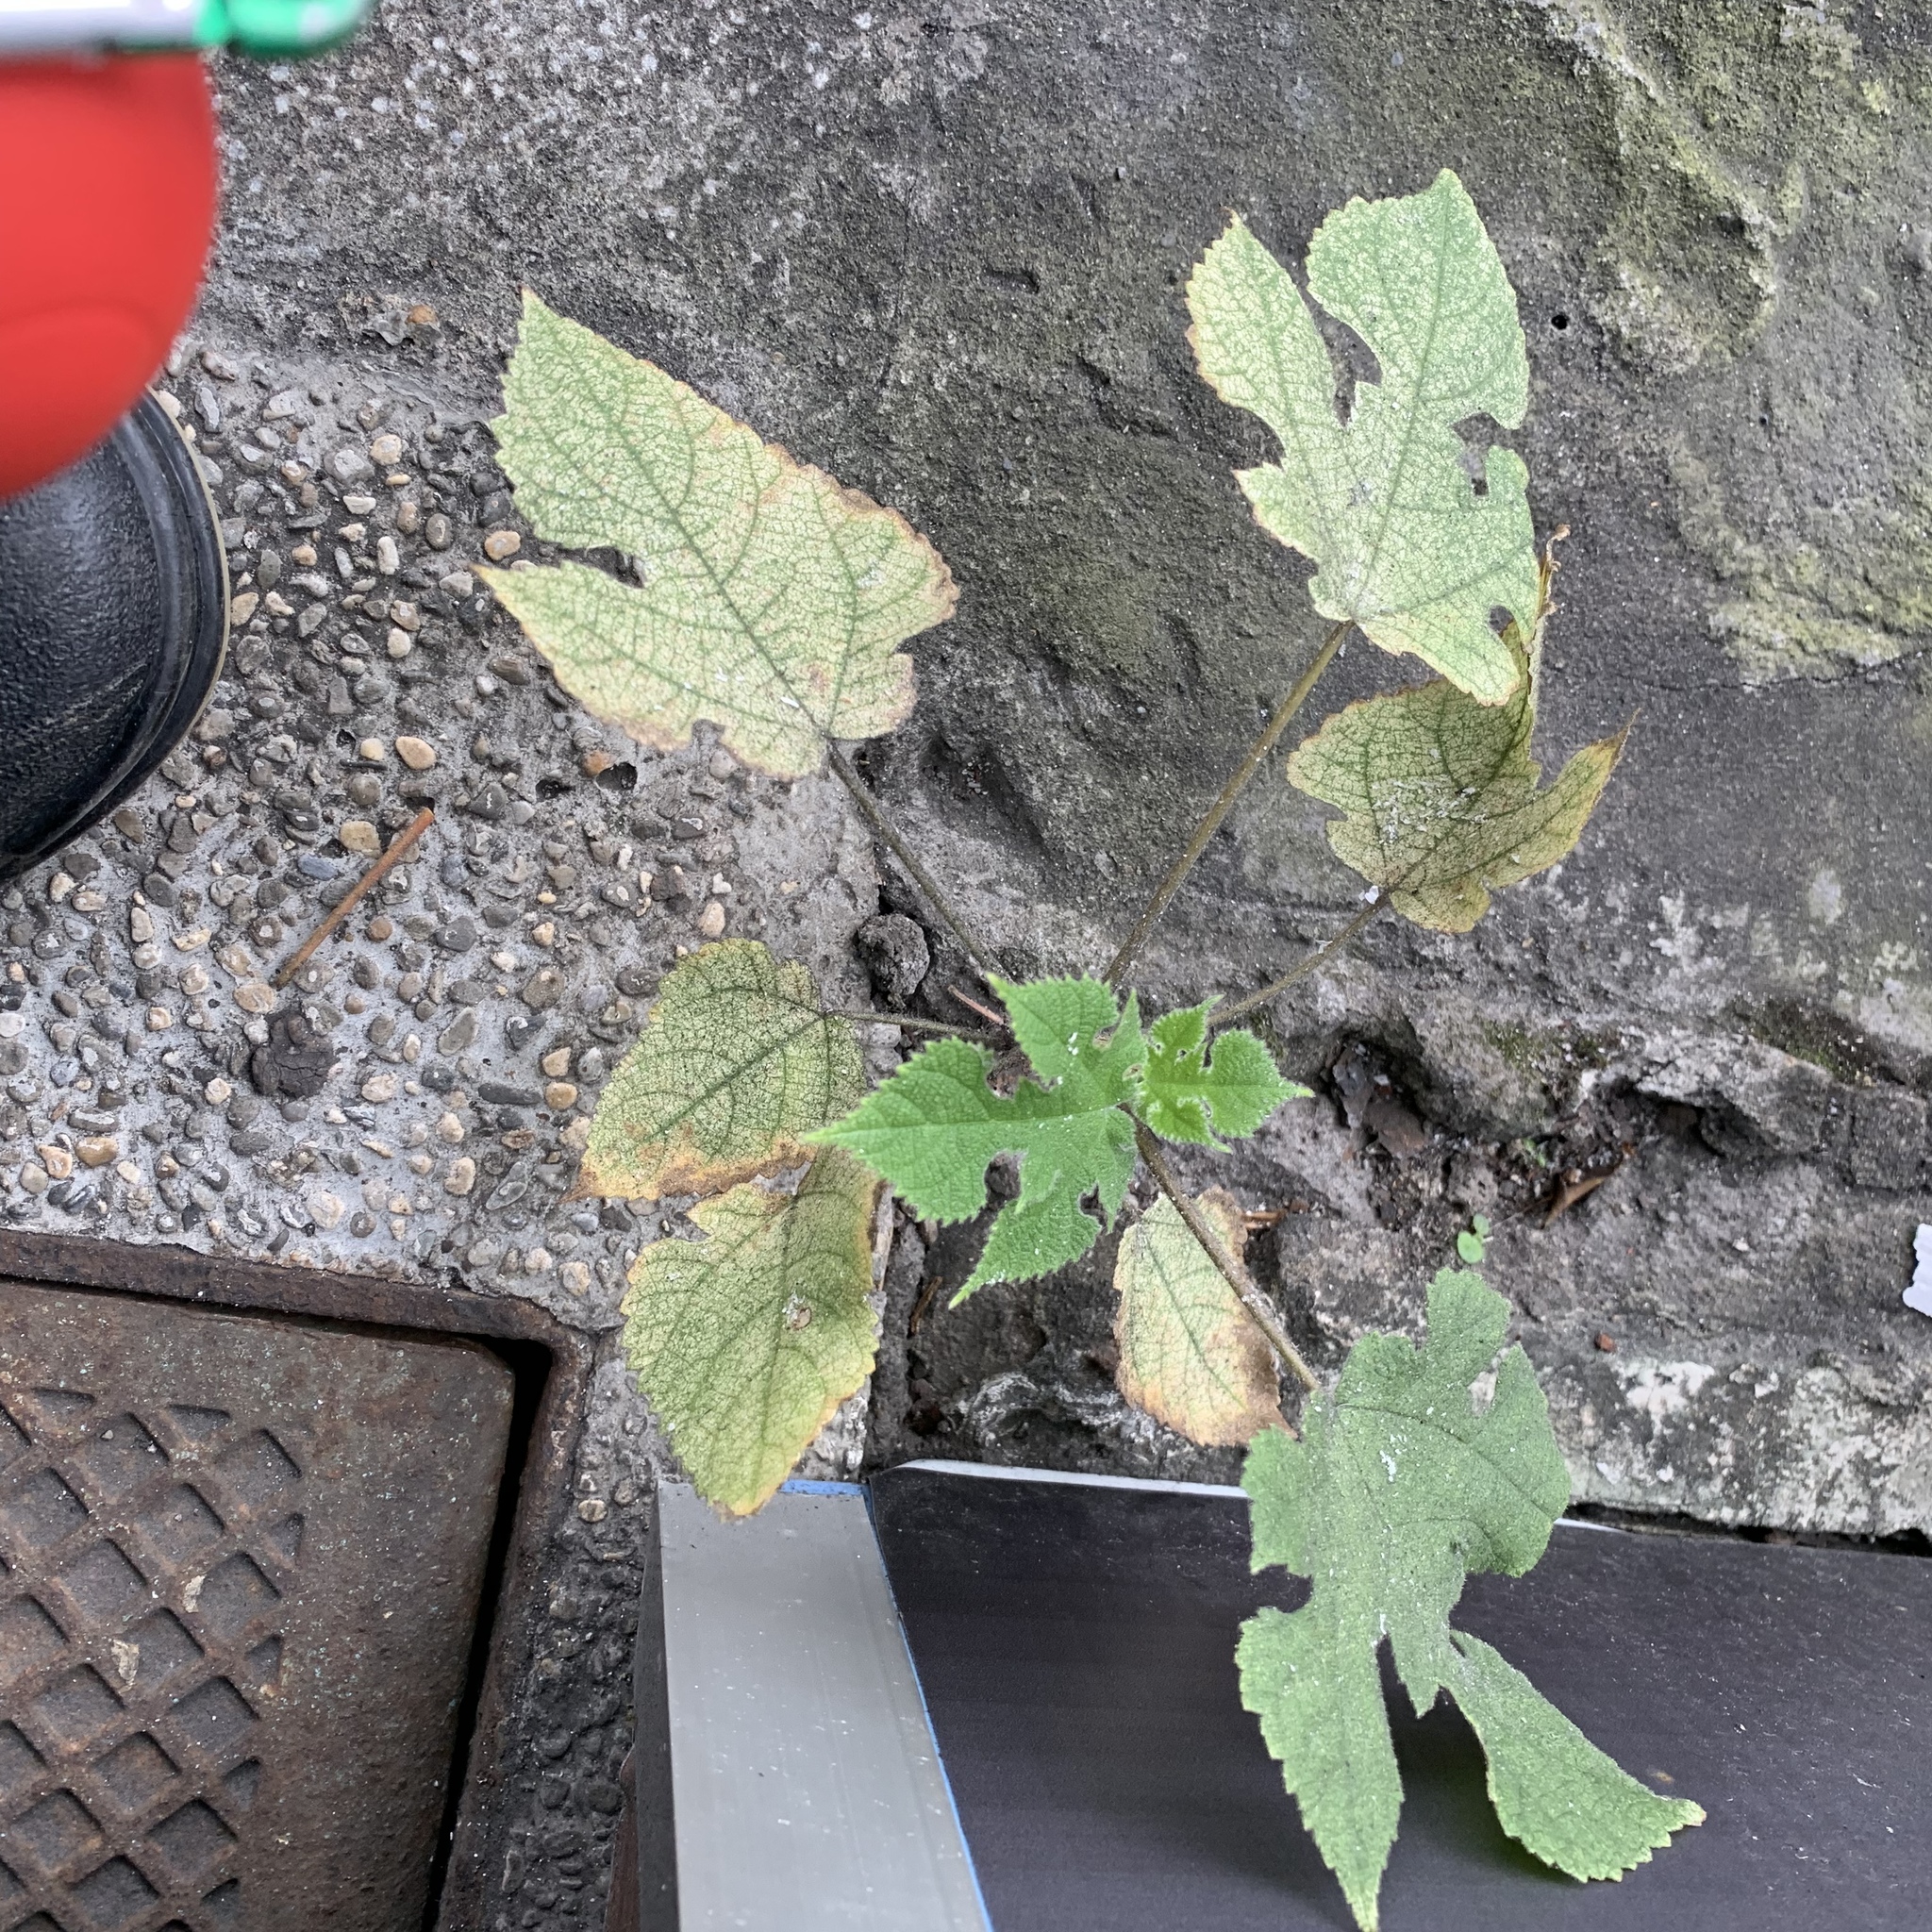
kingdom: Plantae
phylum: Tracheophyta
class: Magnoliopsida
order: Rosales
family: Moraceae
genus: Broussonetia
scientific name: Broussonetia papyrifera
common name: Paper mulberry
